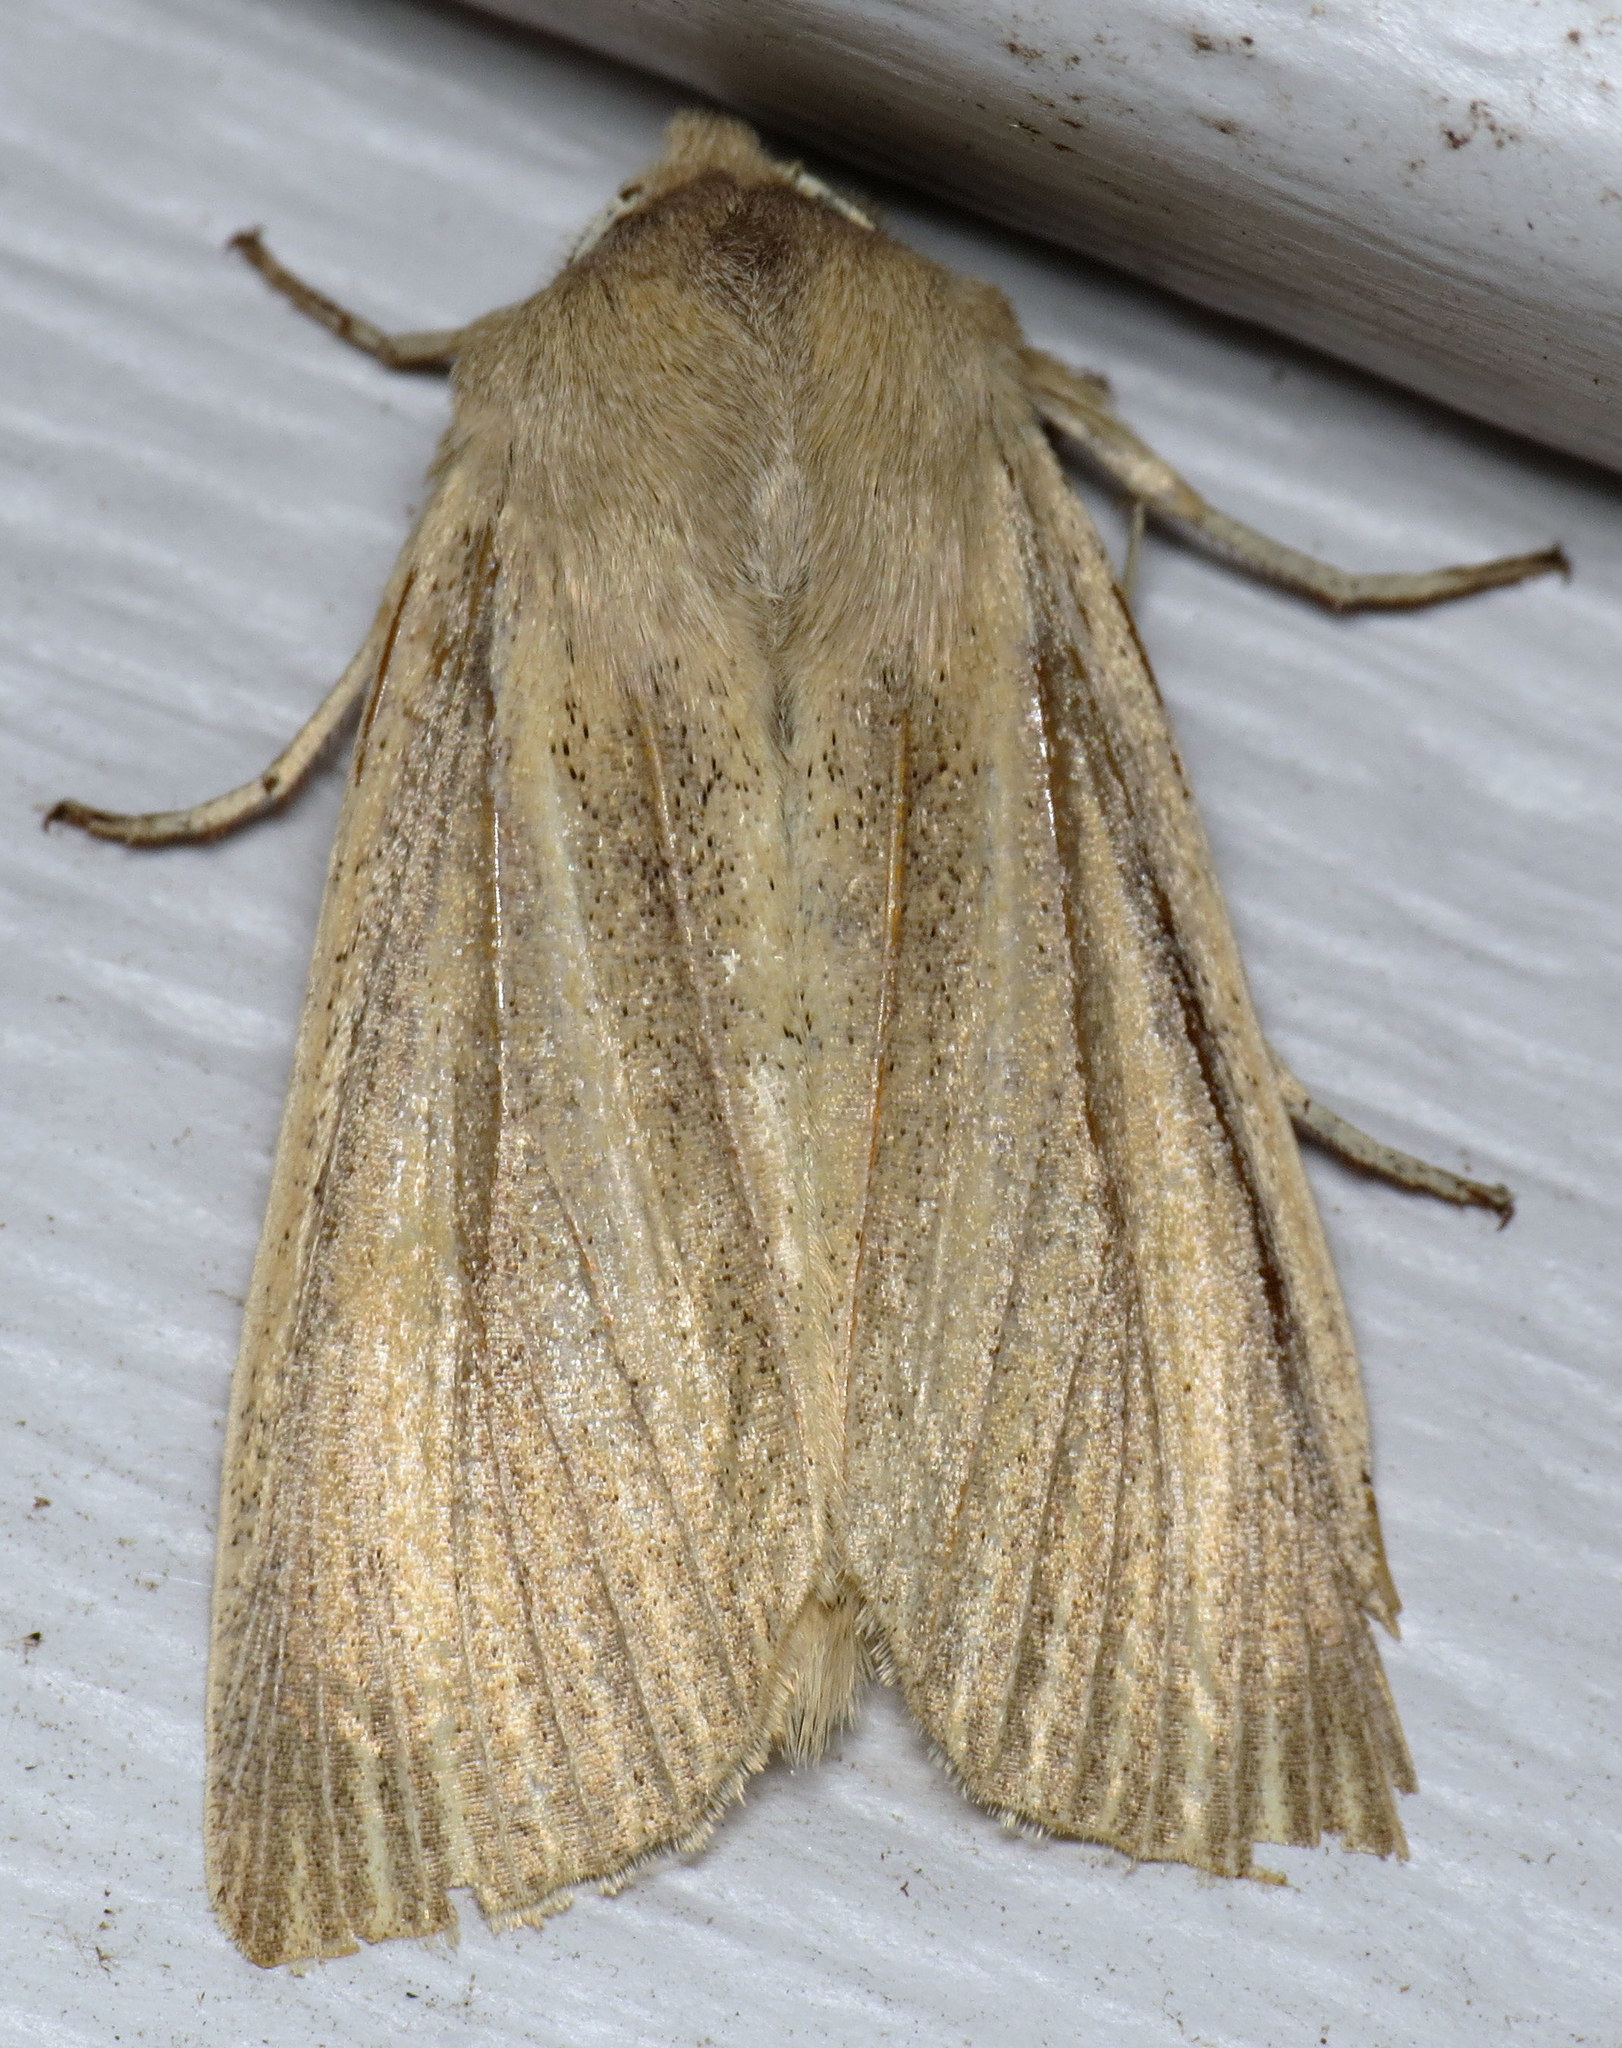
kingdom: Animalia
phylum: Arthropoda
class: Insecta
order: Lepidoptera
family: Noctuidae
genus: Mythimna
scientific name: Mythimna unipuncta
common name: White-speck
